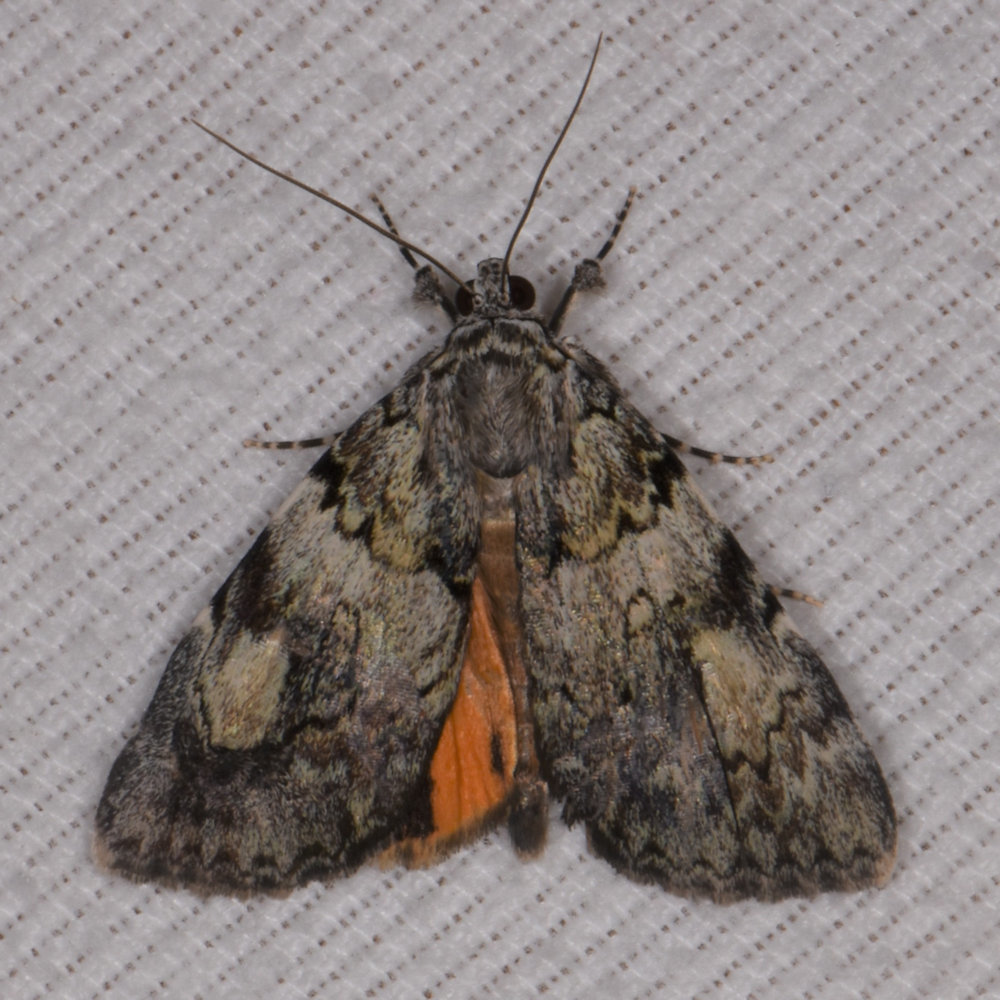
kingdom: Animalia
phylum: Arthropoda
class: Insecta
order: Lepidoptera
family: Erebidae
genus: Catocala
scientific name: Catocala amica
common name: Girlfriend underwing
